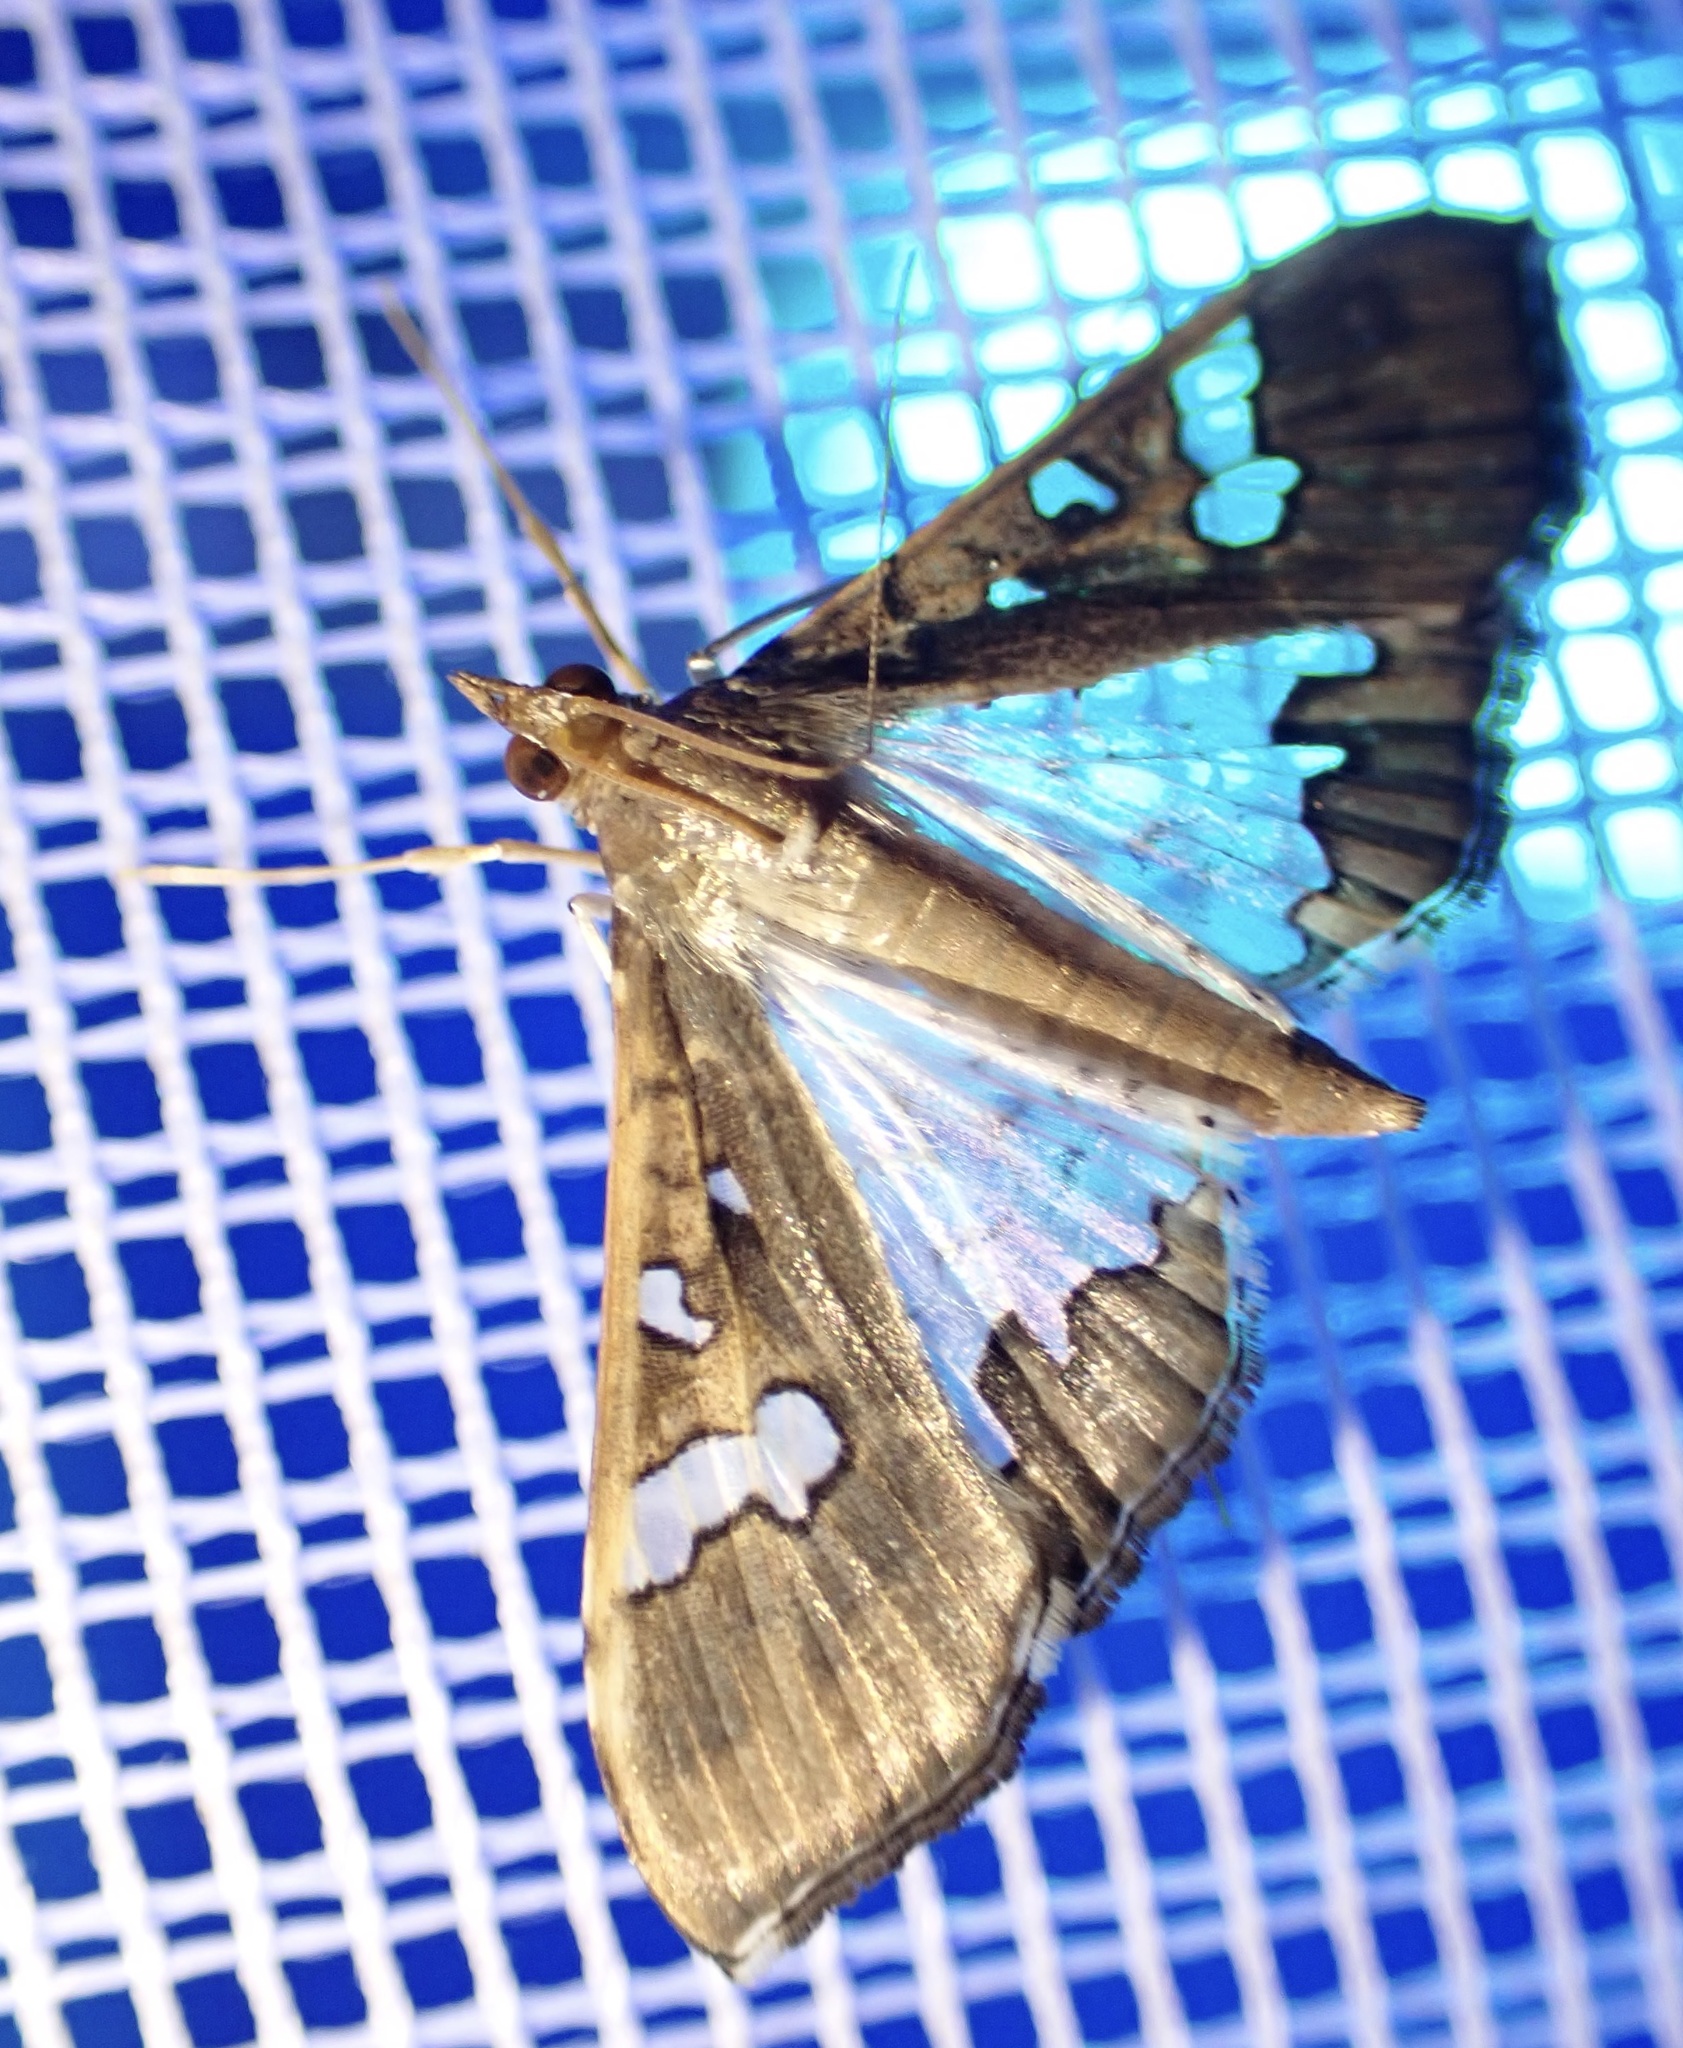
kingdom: Animalia
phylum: Arthropoda
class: Insecta
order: Lepidoptera
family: Crambidae
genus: Maruca
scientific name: Maruca vitrata
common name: Maruca pod borer
